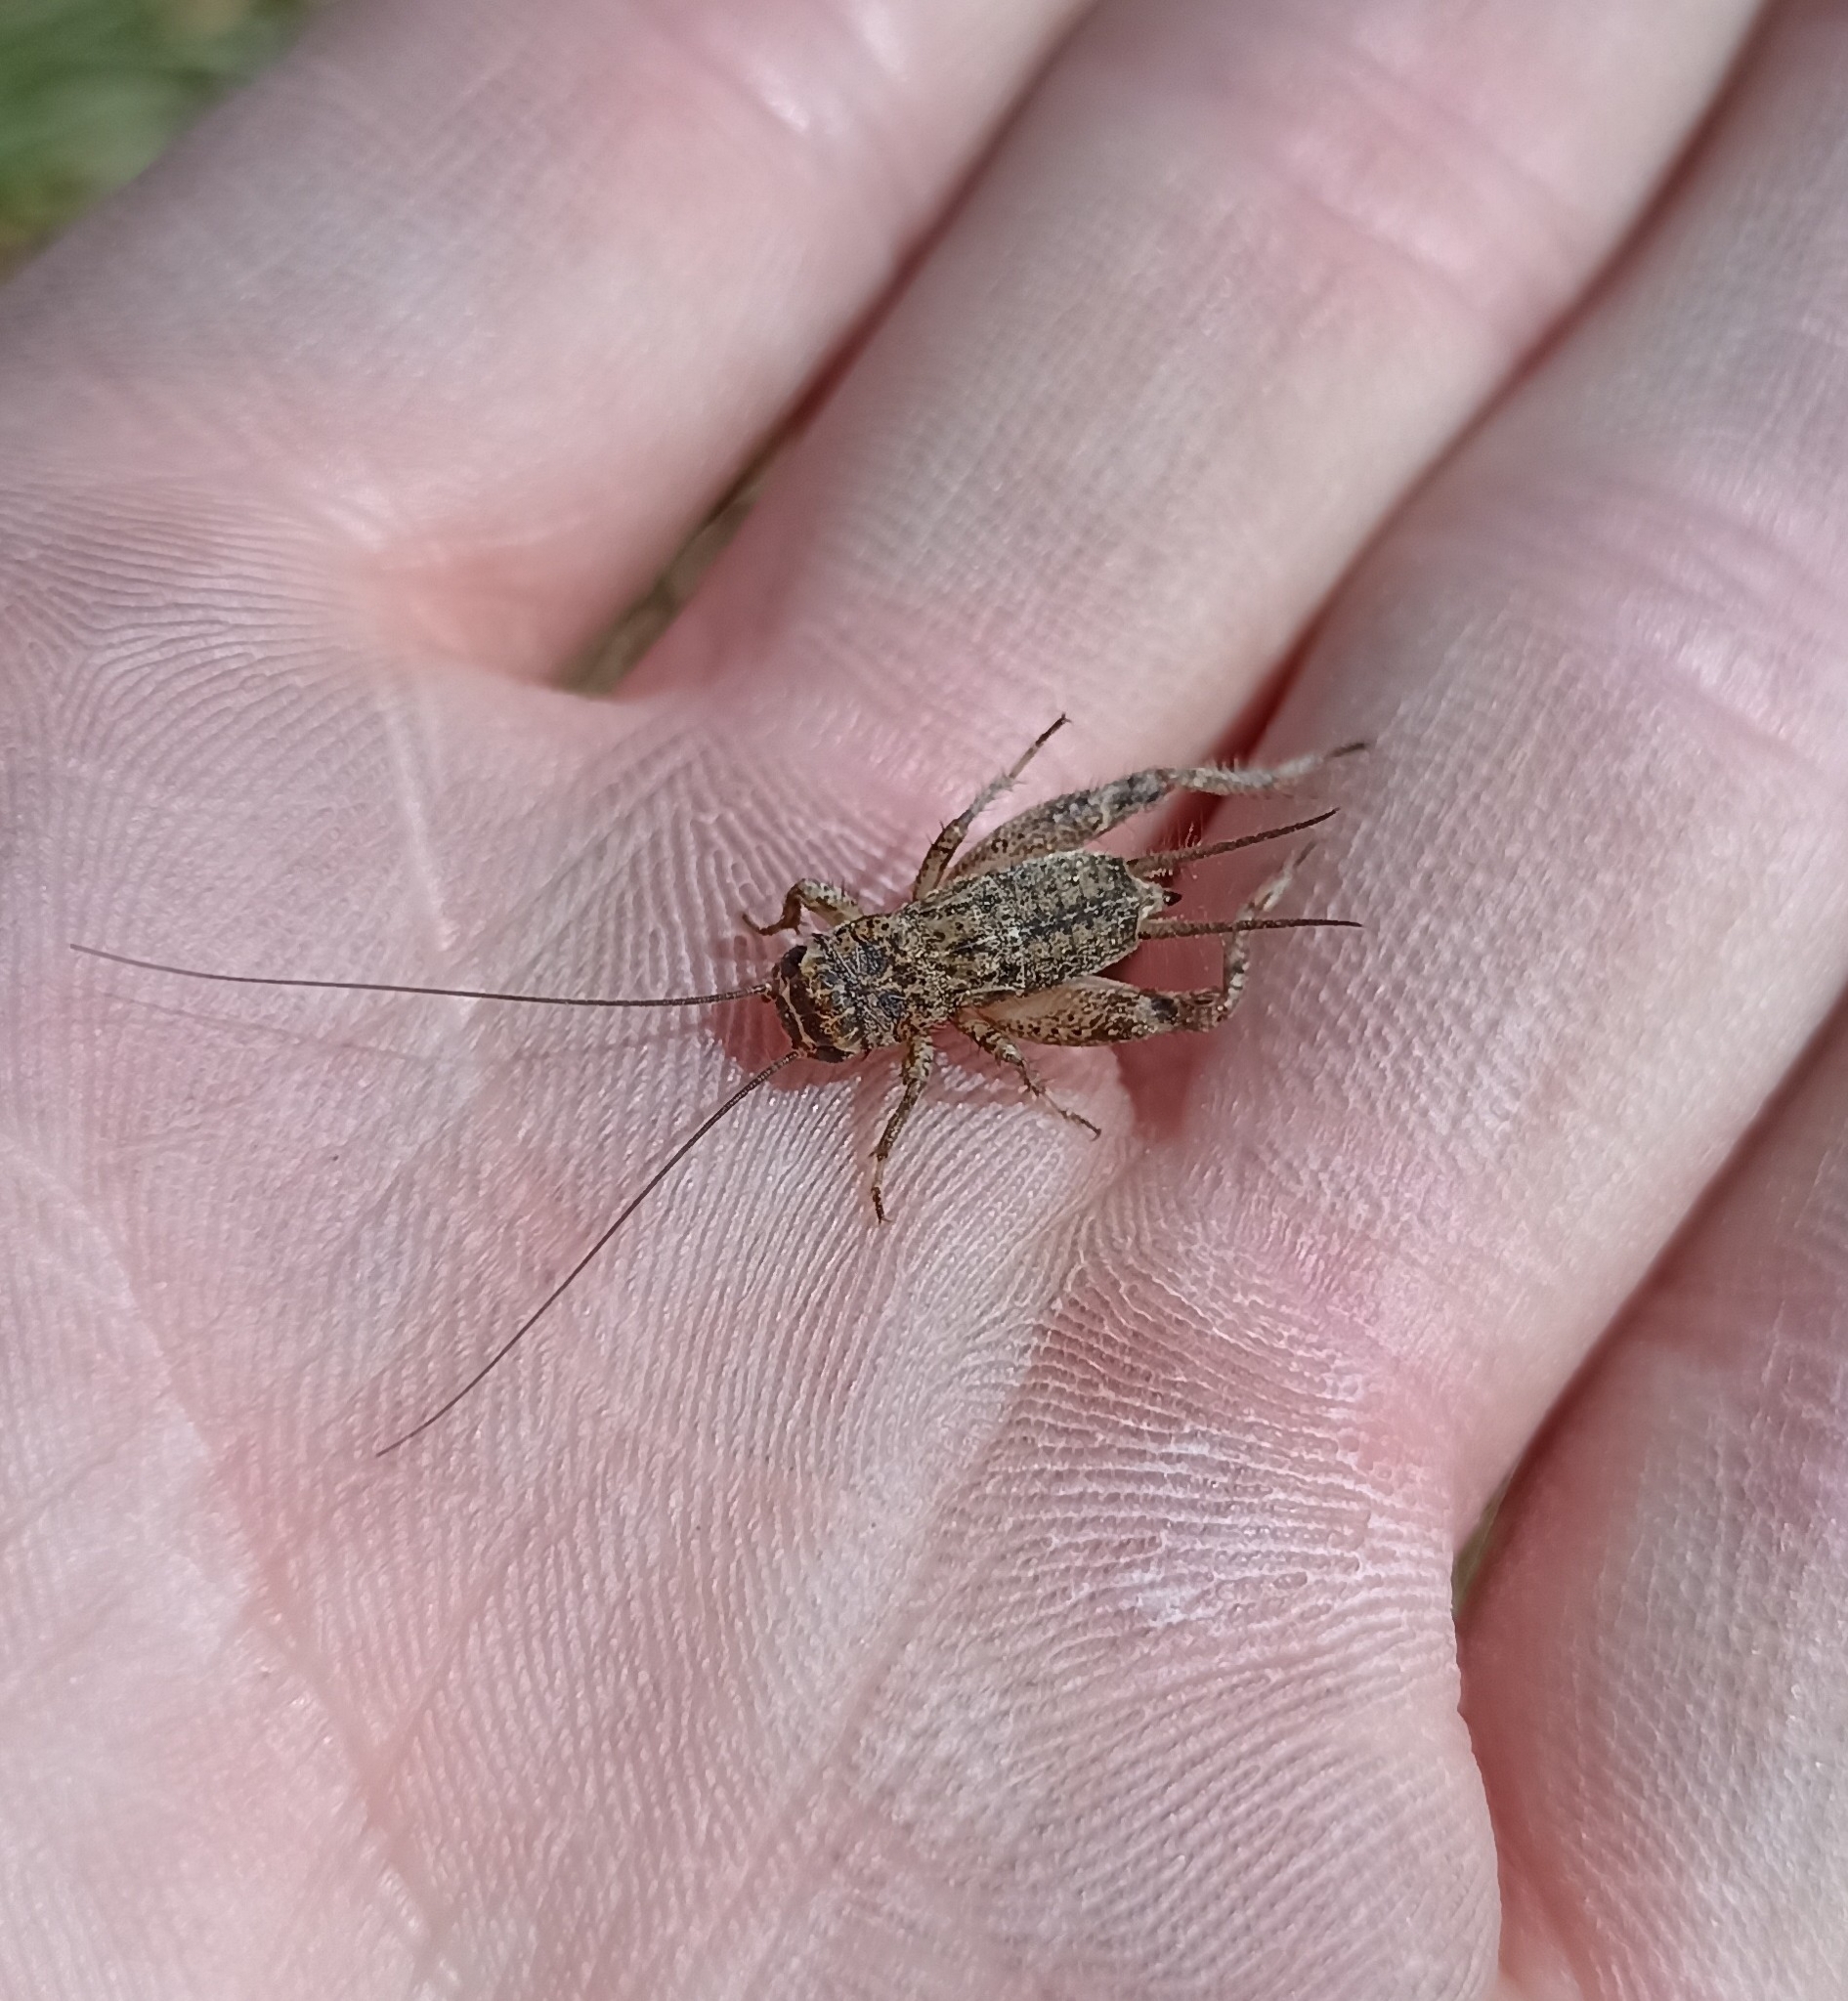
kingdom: Animalia
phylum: Arthropoda
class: Insecta
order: Orthoptera
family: Gryllidae
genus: Eumodicogryllus
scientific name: Eumodicogryllus bordigalensis
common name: Bordeaux cricket
